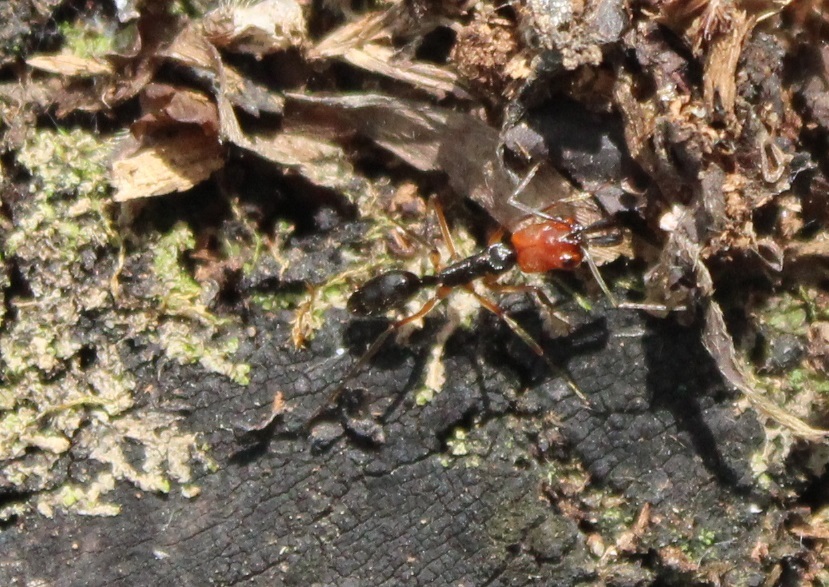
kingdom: Animalia
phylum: Arthropoda
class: Insecta
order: Hymenoptera
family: Formicidae
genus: Odontomachus
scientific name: Odontomachus erythrocephalus
